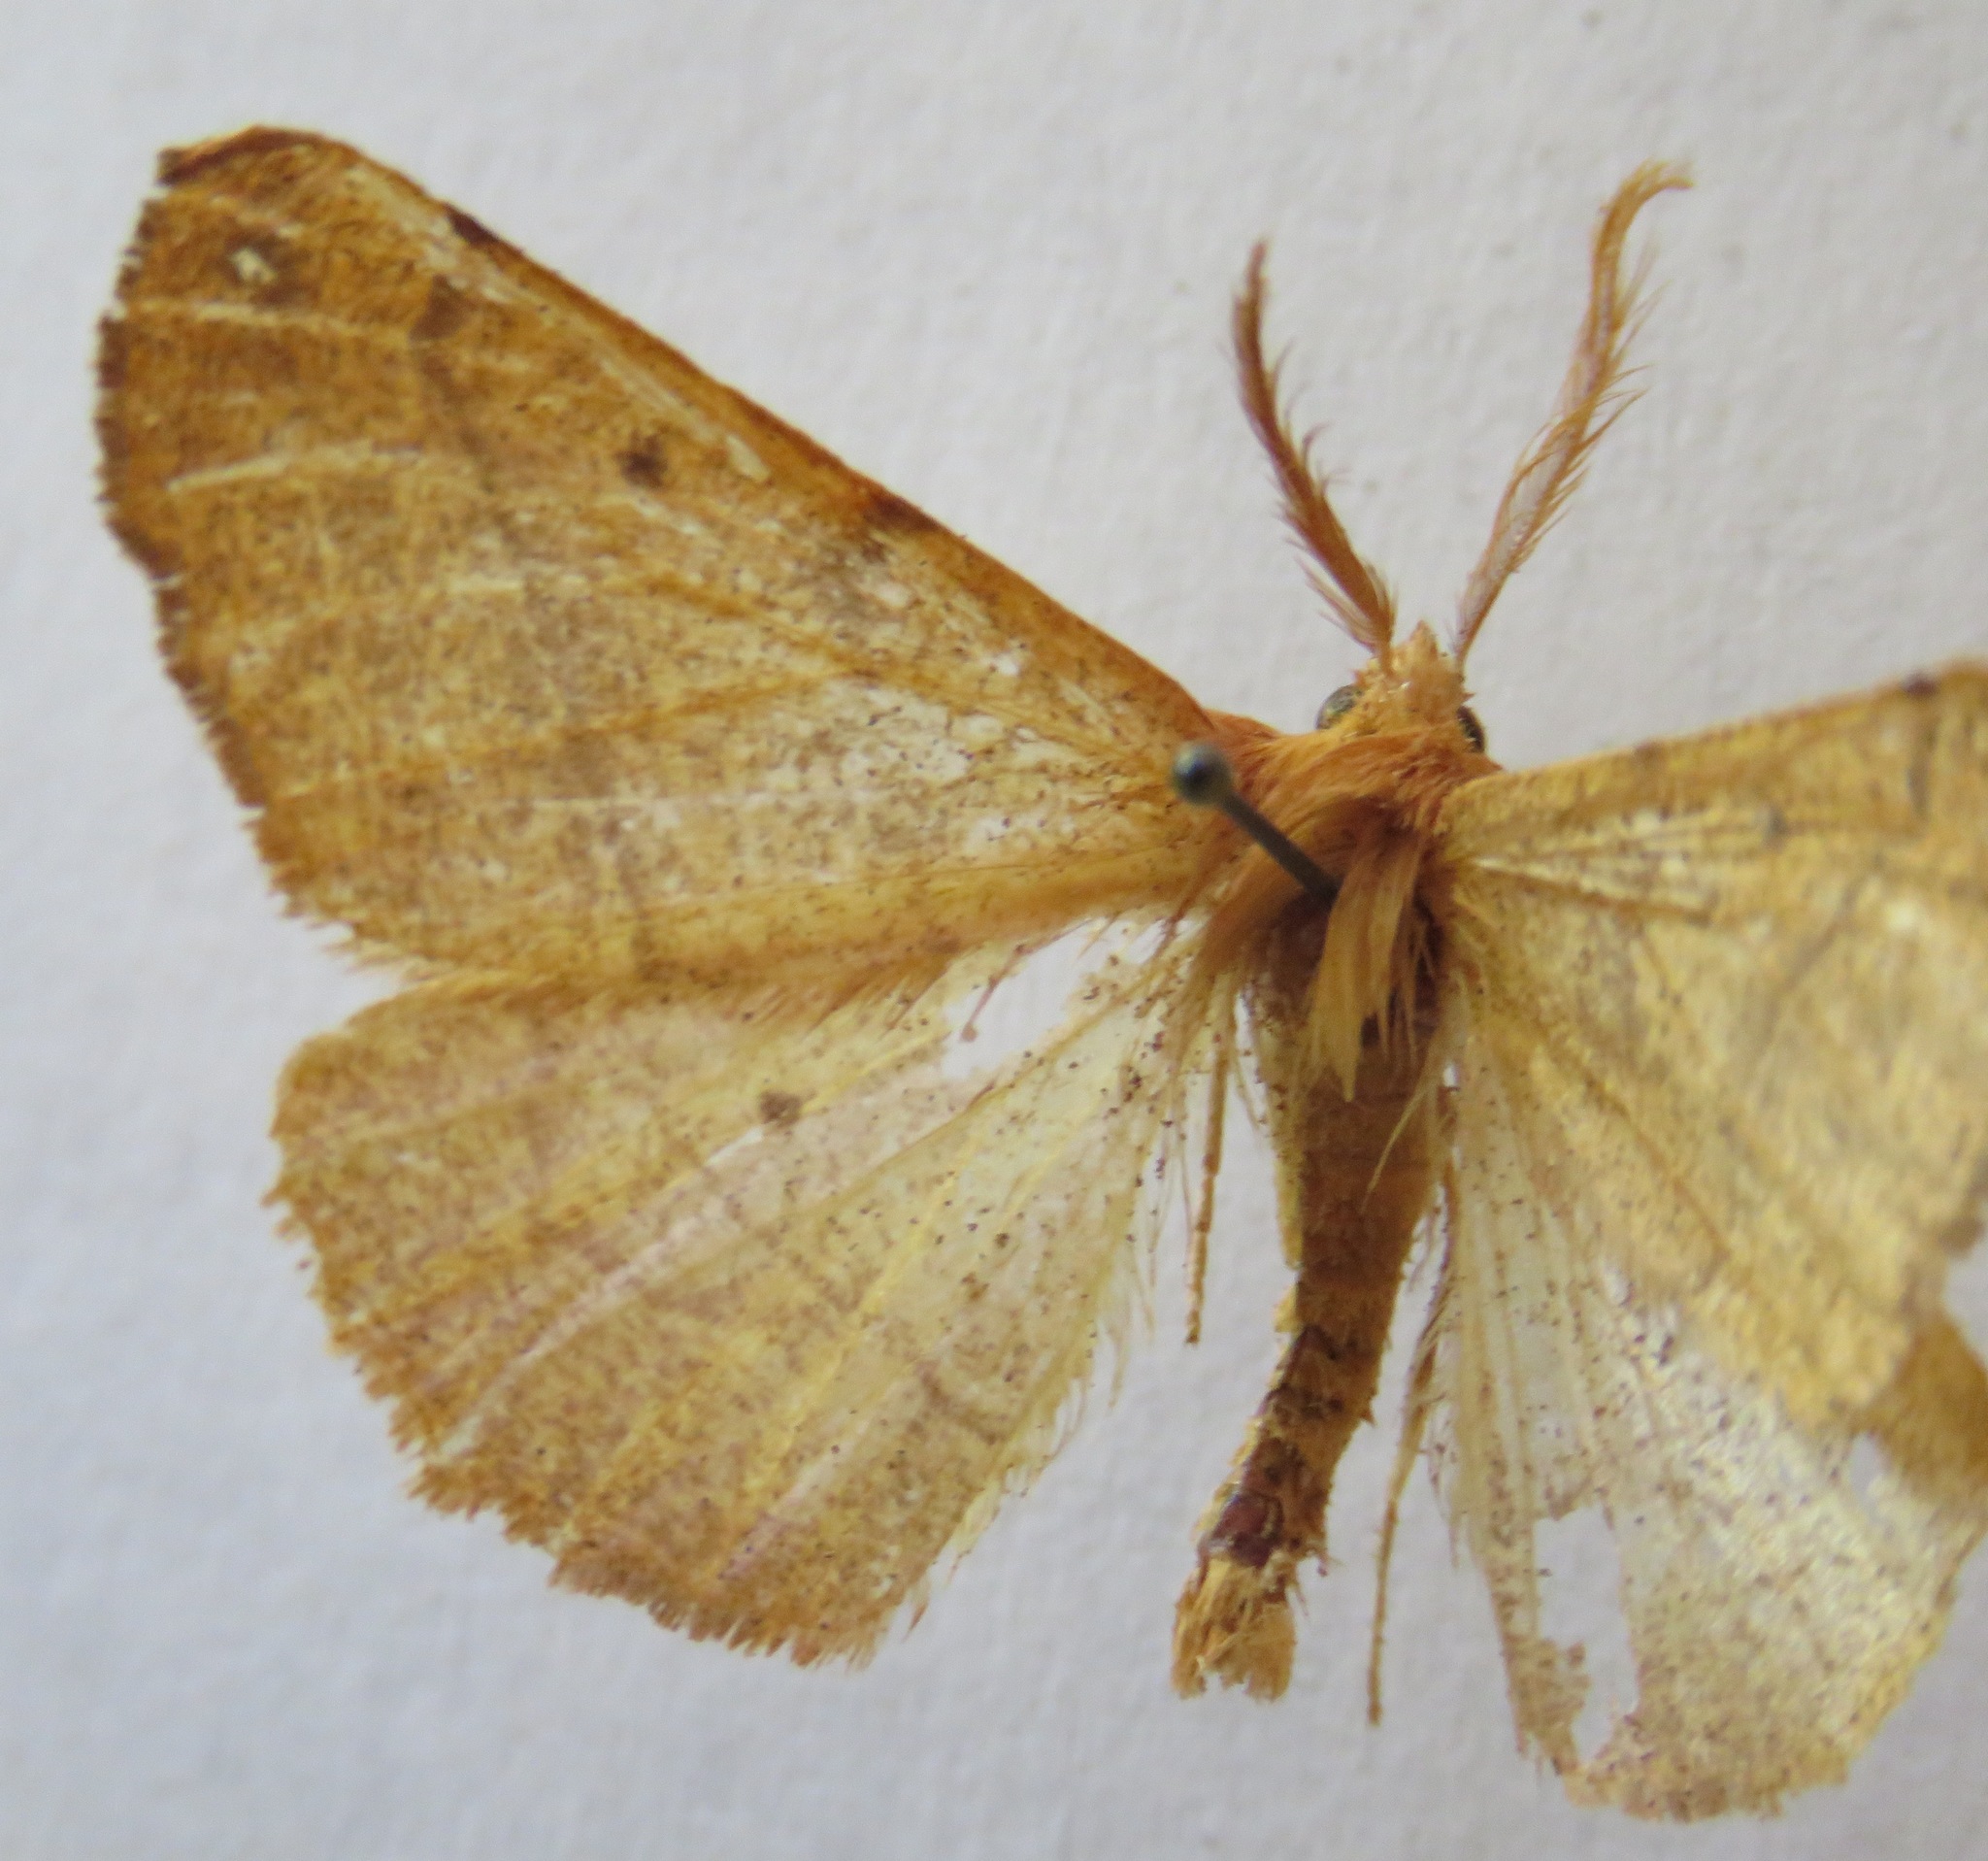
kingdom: Animalia
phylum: Arthropoda
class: Insecta
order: Lepidoptera
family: Geometridae
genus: Colotois
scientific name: Colotois pennaria
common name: Feathered thorn
